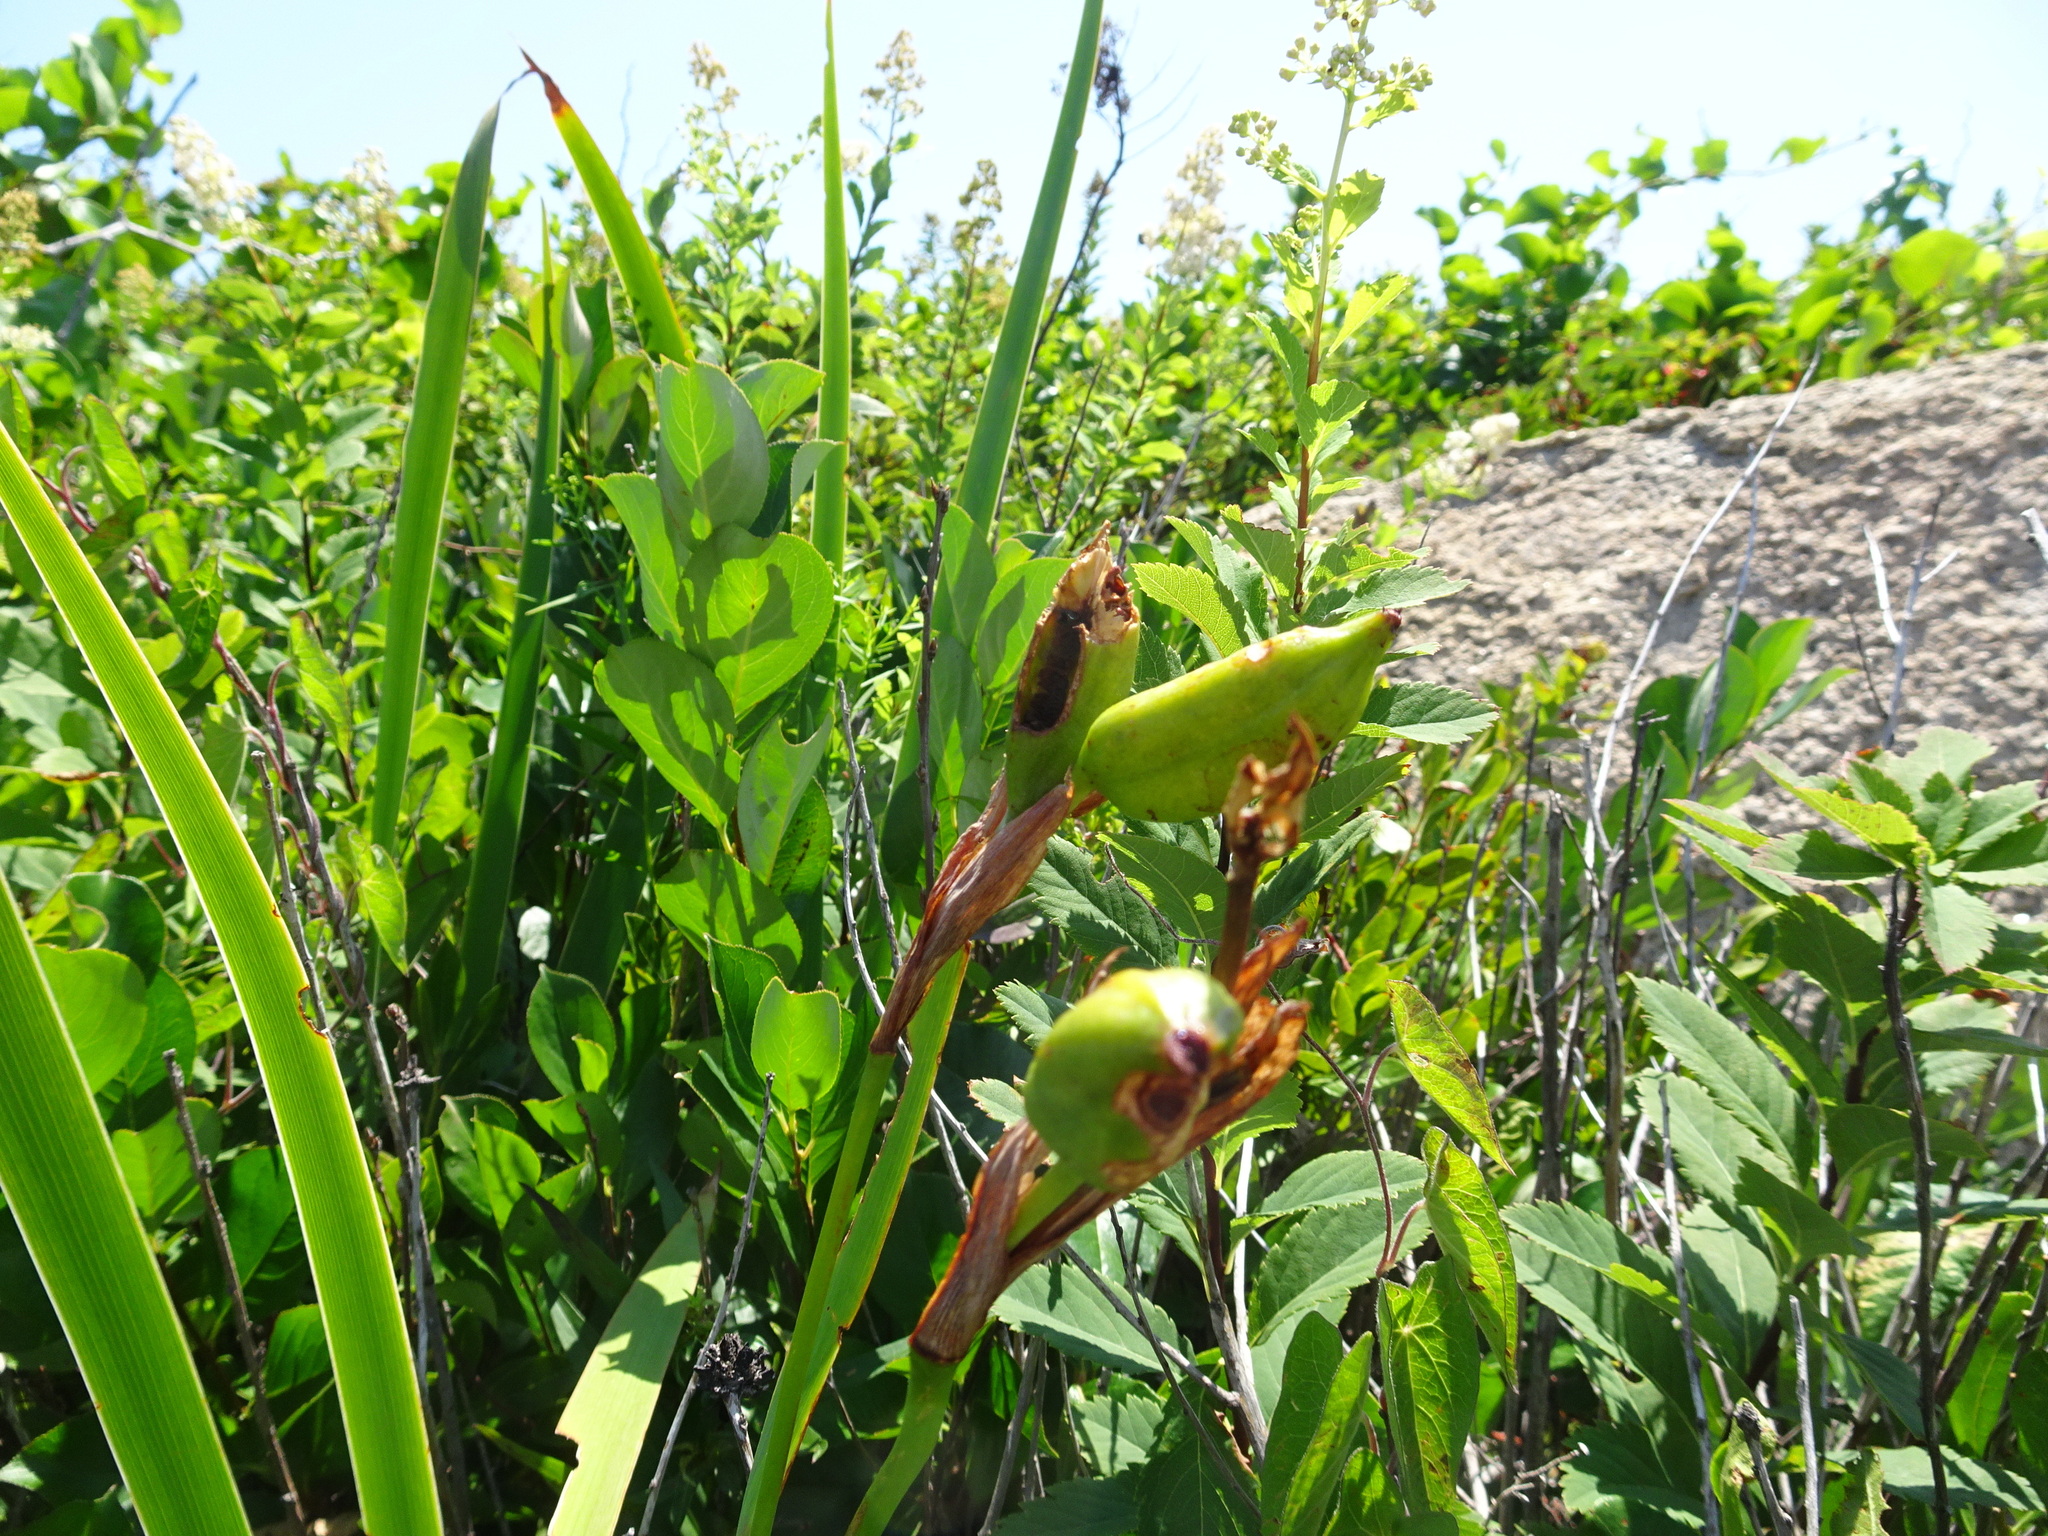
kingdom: Plantae
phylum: Tracheophyta
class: Liliopsida
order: Asparagales
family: Iridaceae
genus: Iris
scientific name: Iris versicolor
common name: Purple iris
